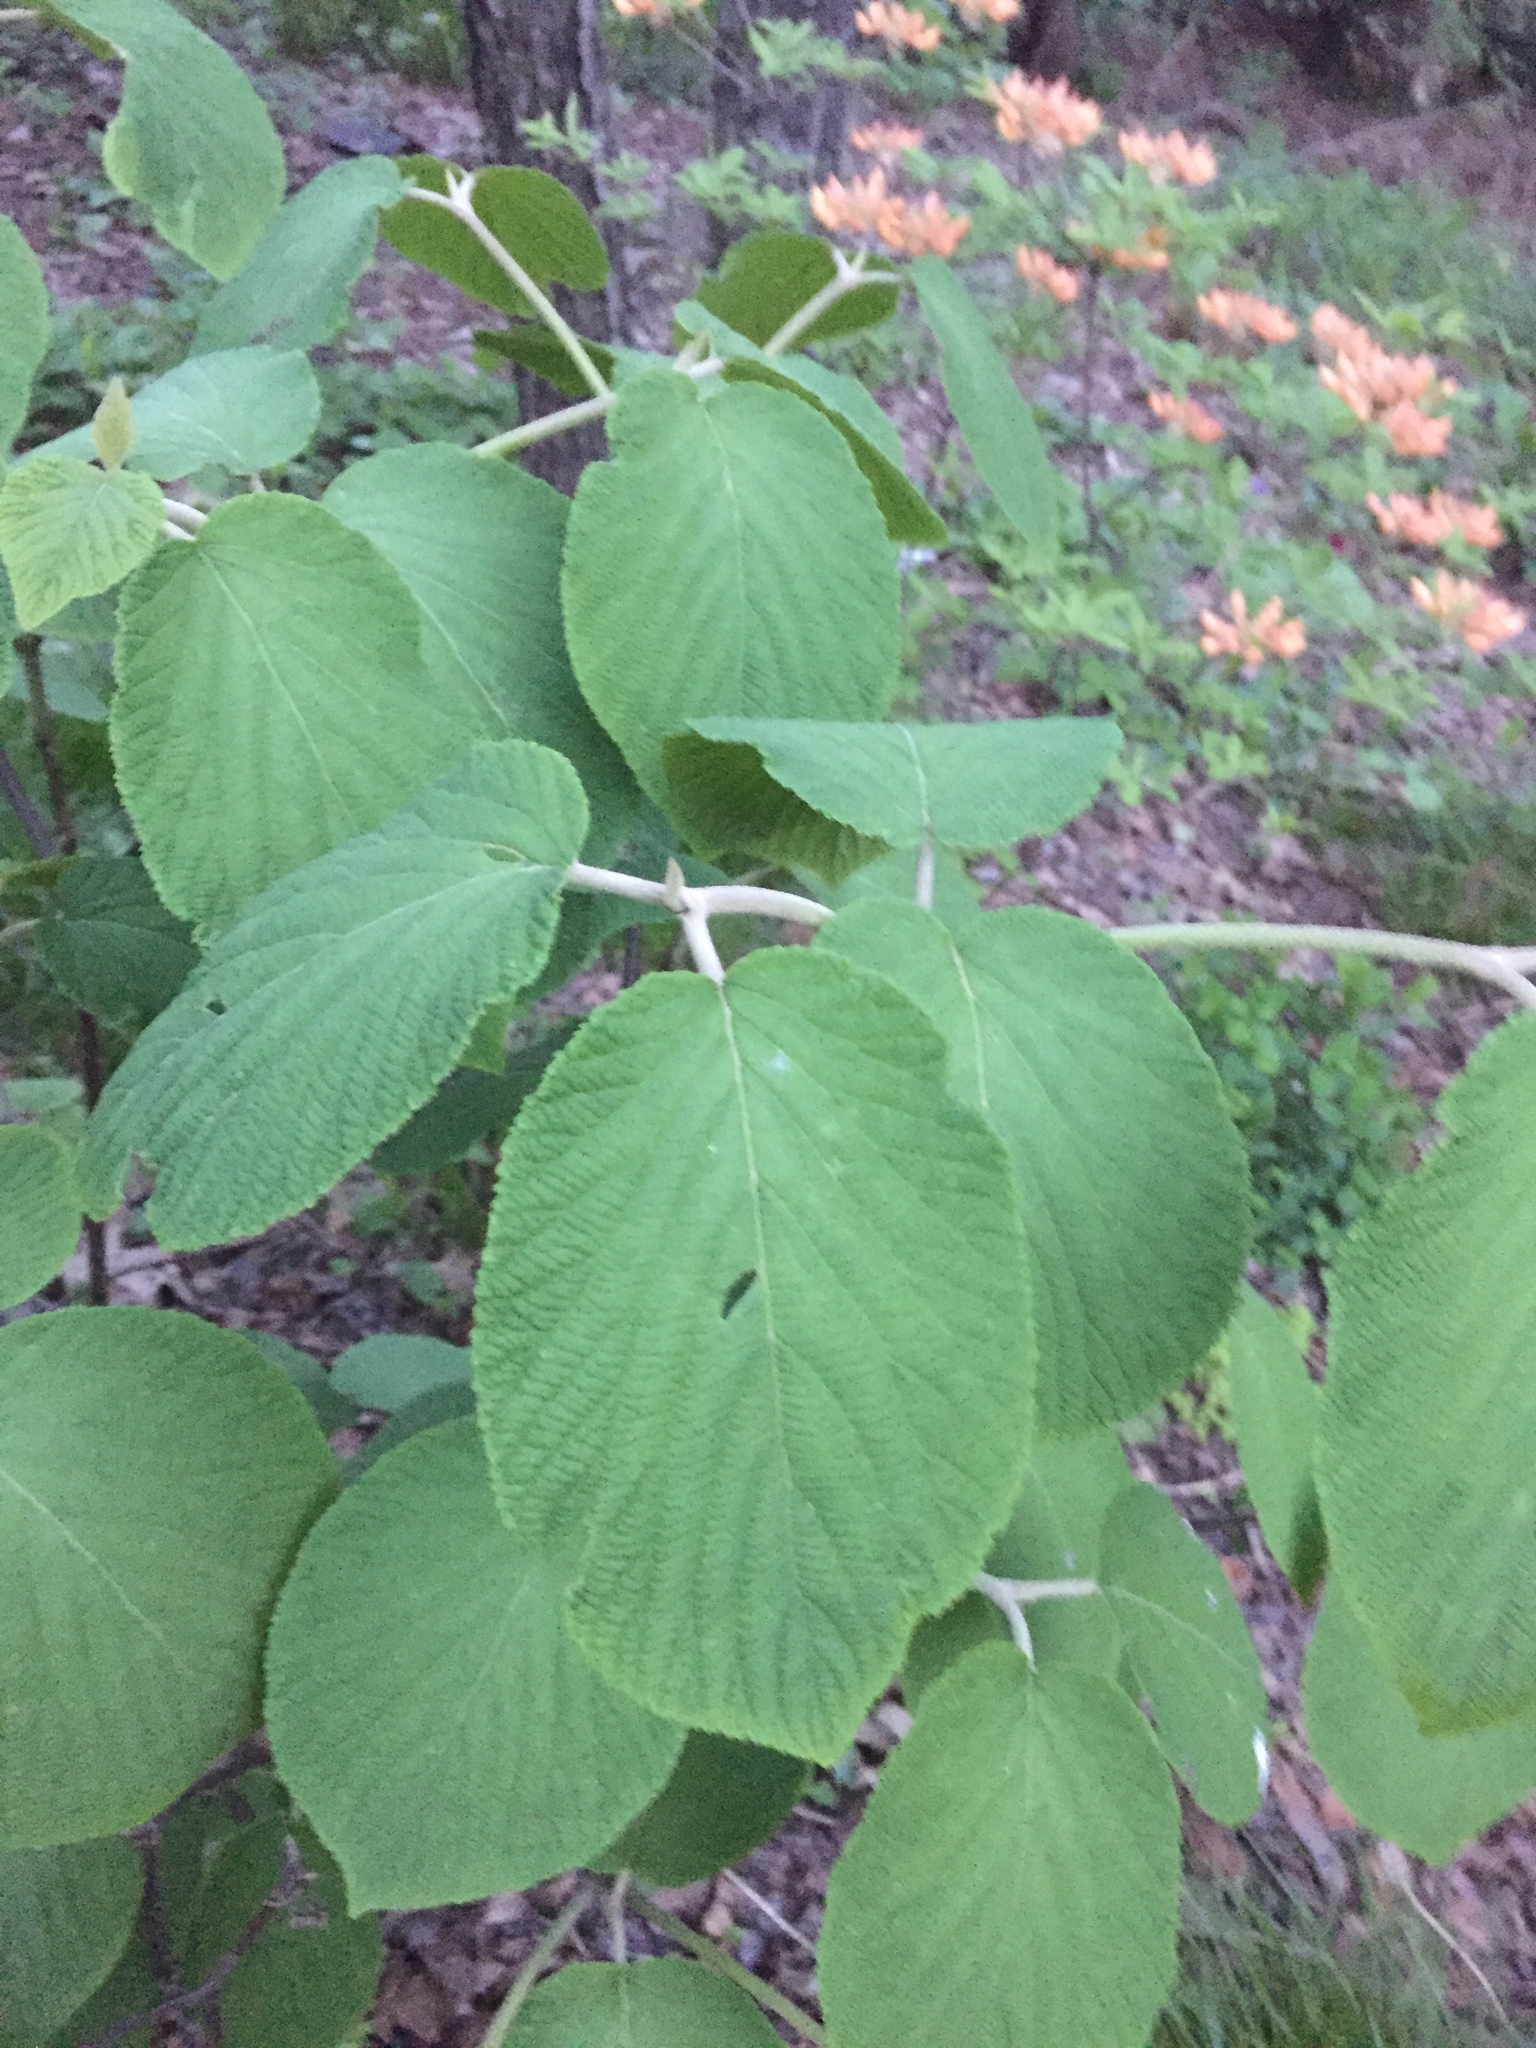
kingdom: Plantae
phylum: Tracheophyta
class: Magnoliopsida
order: Dipsacales
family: Viburnaceae
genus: Viburnum
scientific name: Viburnum lantanoides
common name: Hobblebush
